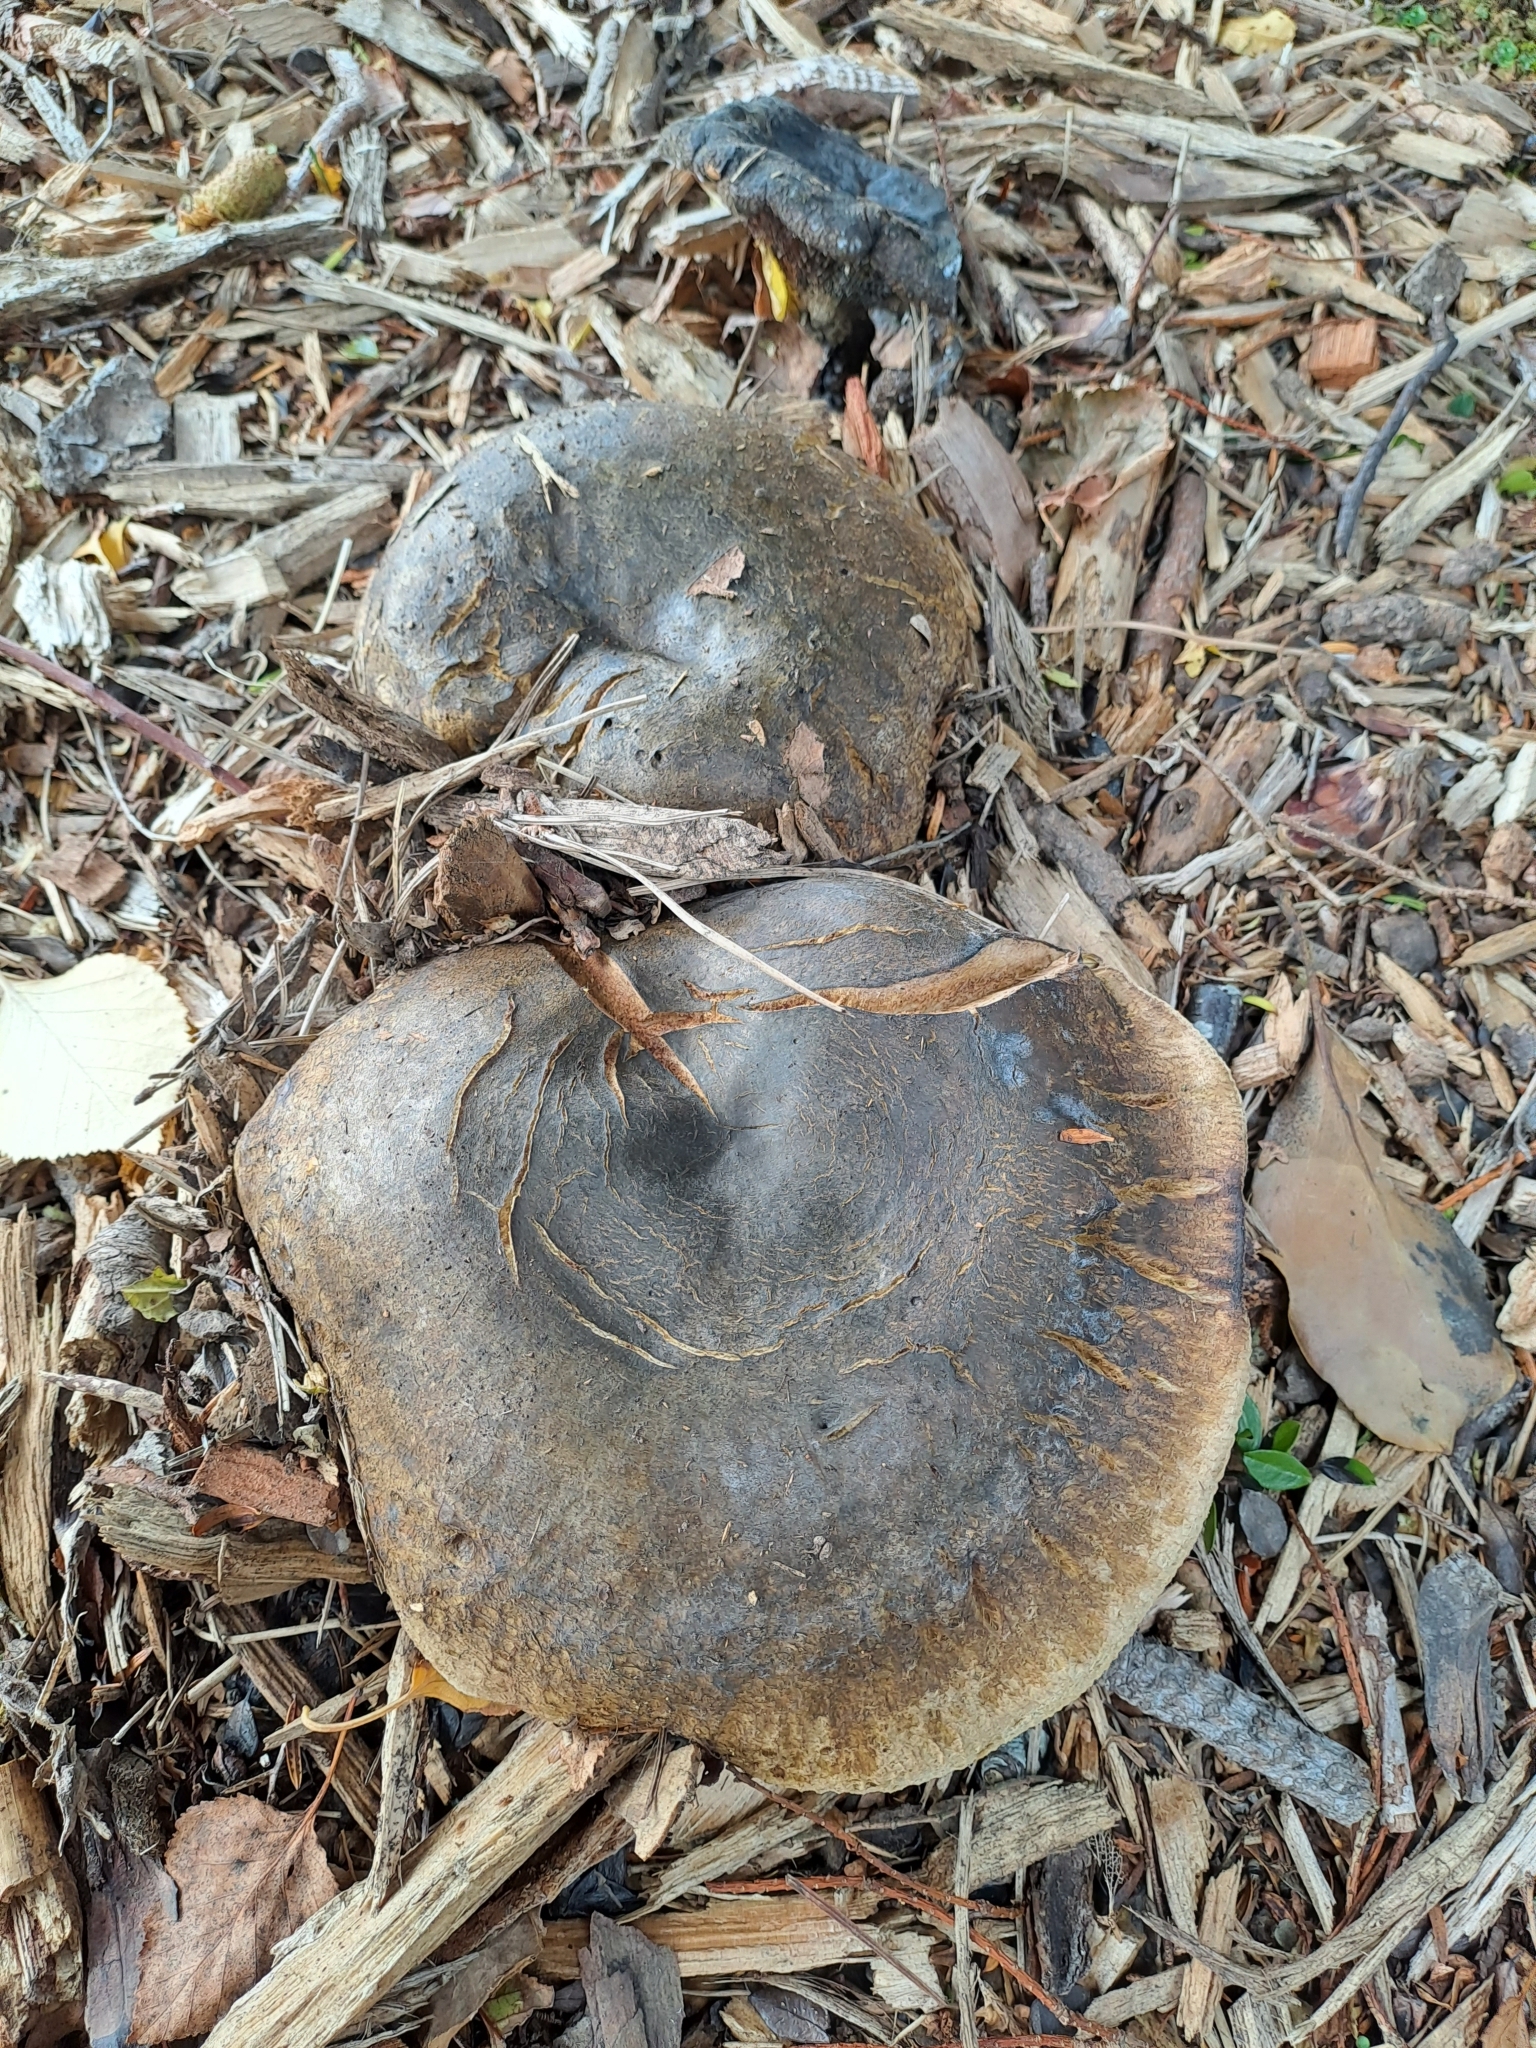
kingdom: Fungi
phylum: Basidiomycota
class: Agaricomycetes
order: Russulales
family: Russulaceae
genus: Lactarius
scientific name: Lactarius turpis
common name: Ugly milk-cap
